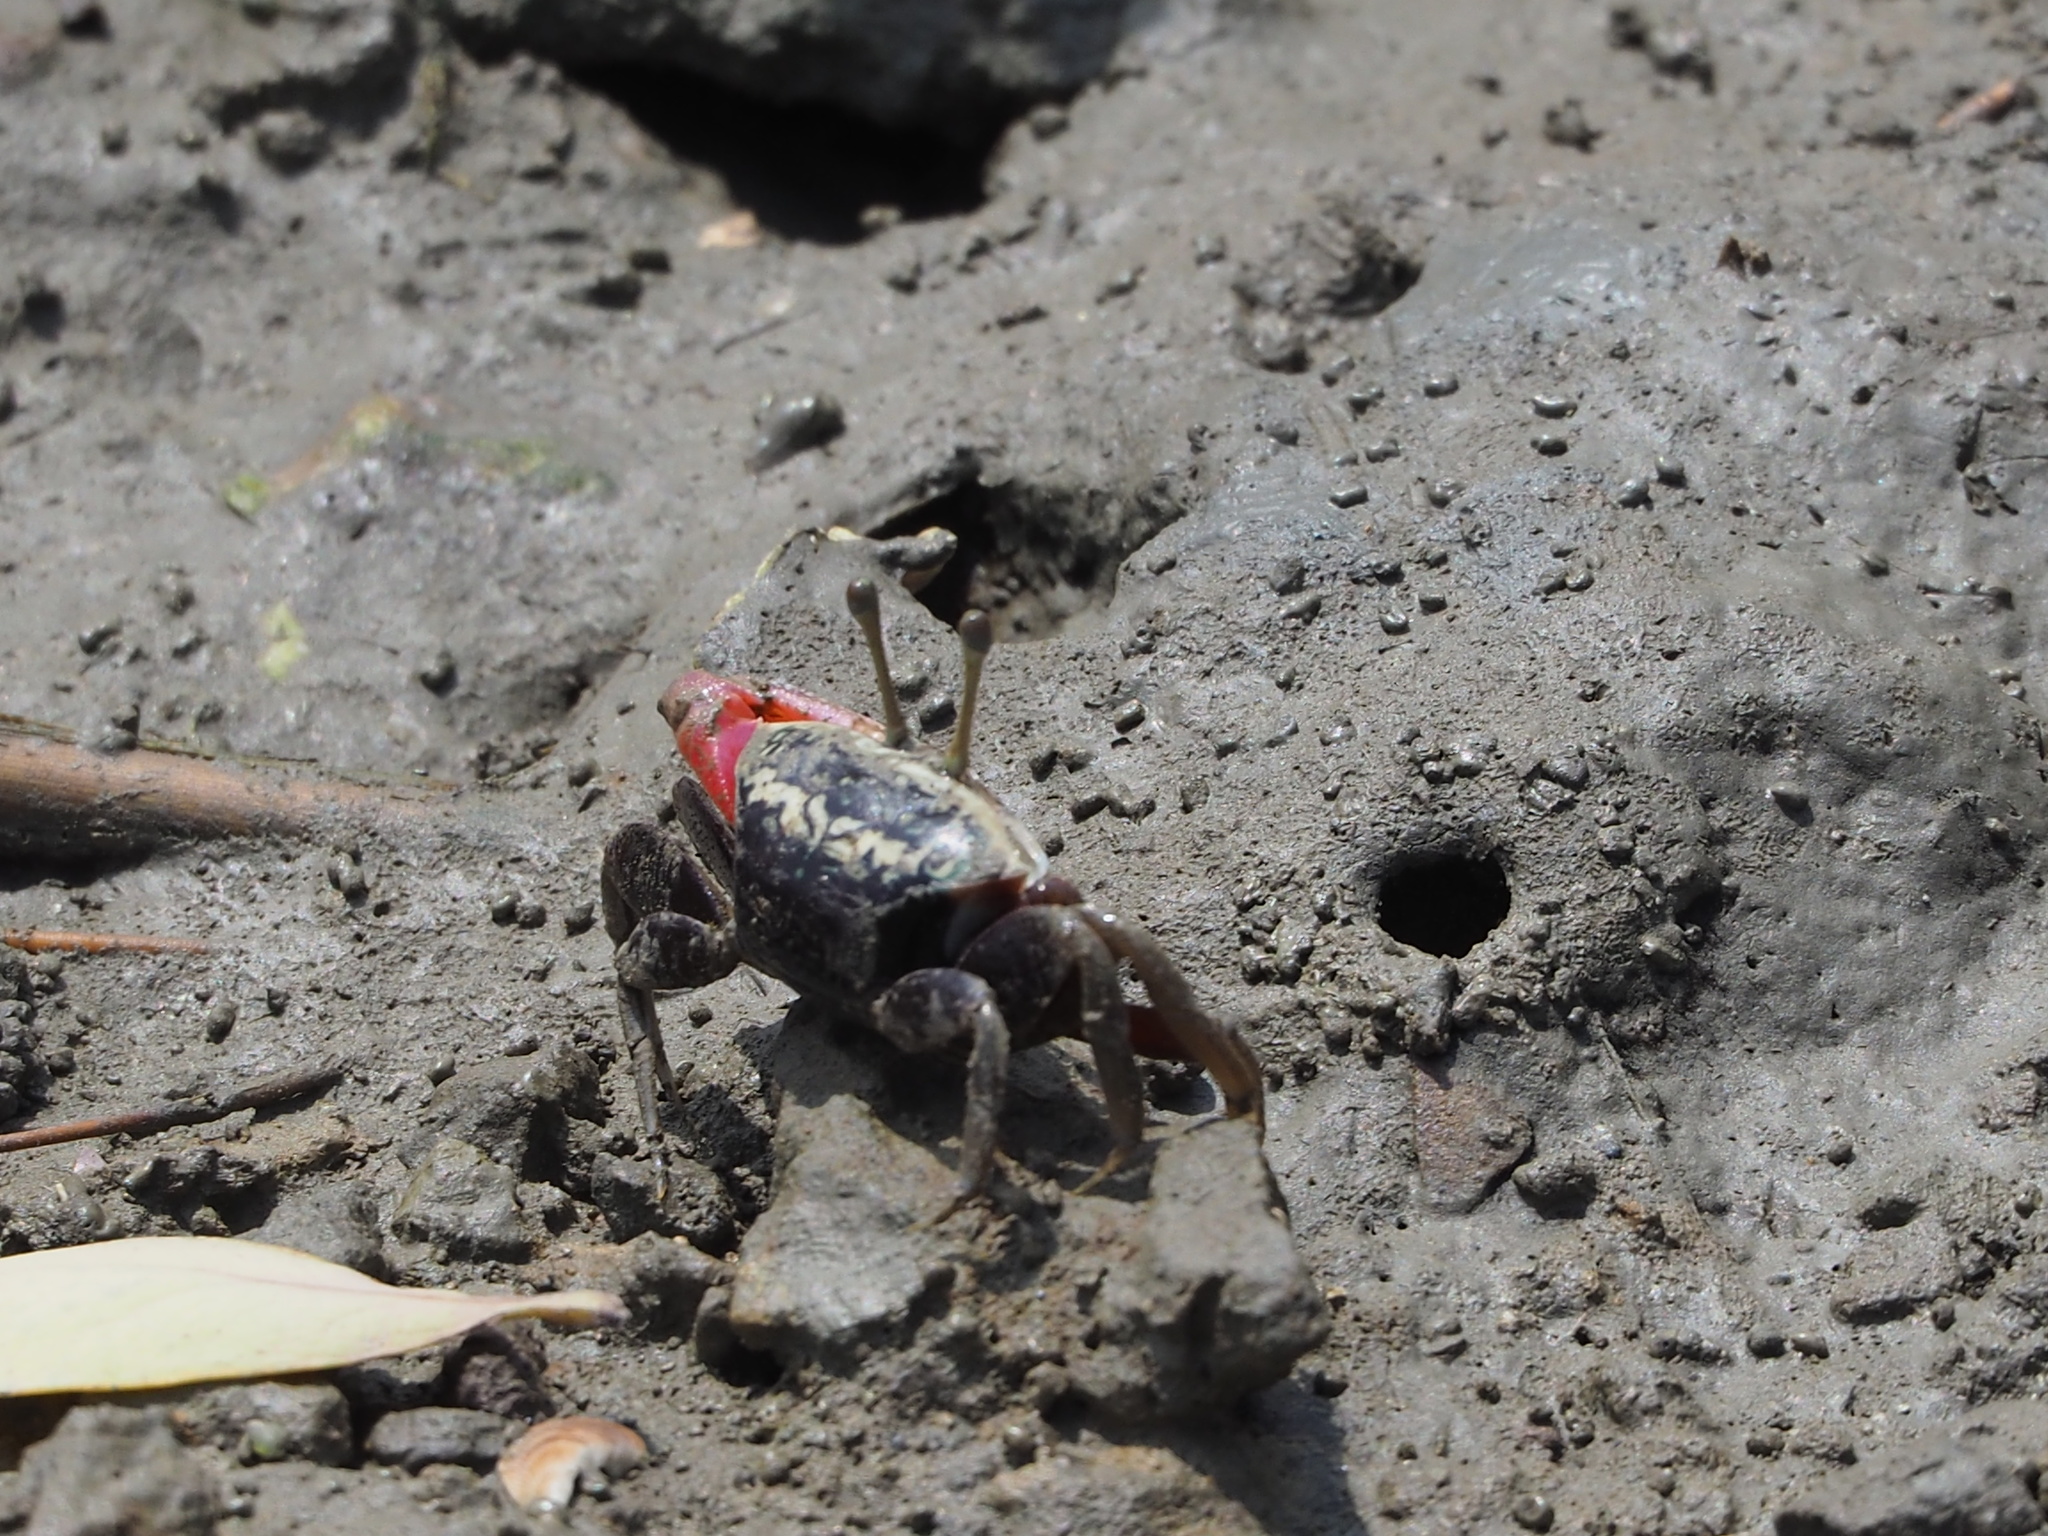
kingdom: Animalia
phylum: Arthropoda
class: Malacostraca
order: Decapoda
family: Ocypodidae
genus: Tubuca
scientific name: Tubuca arcuata
